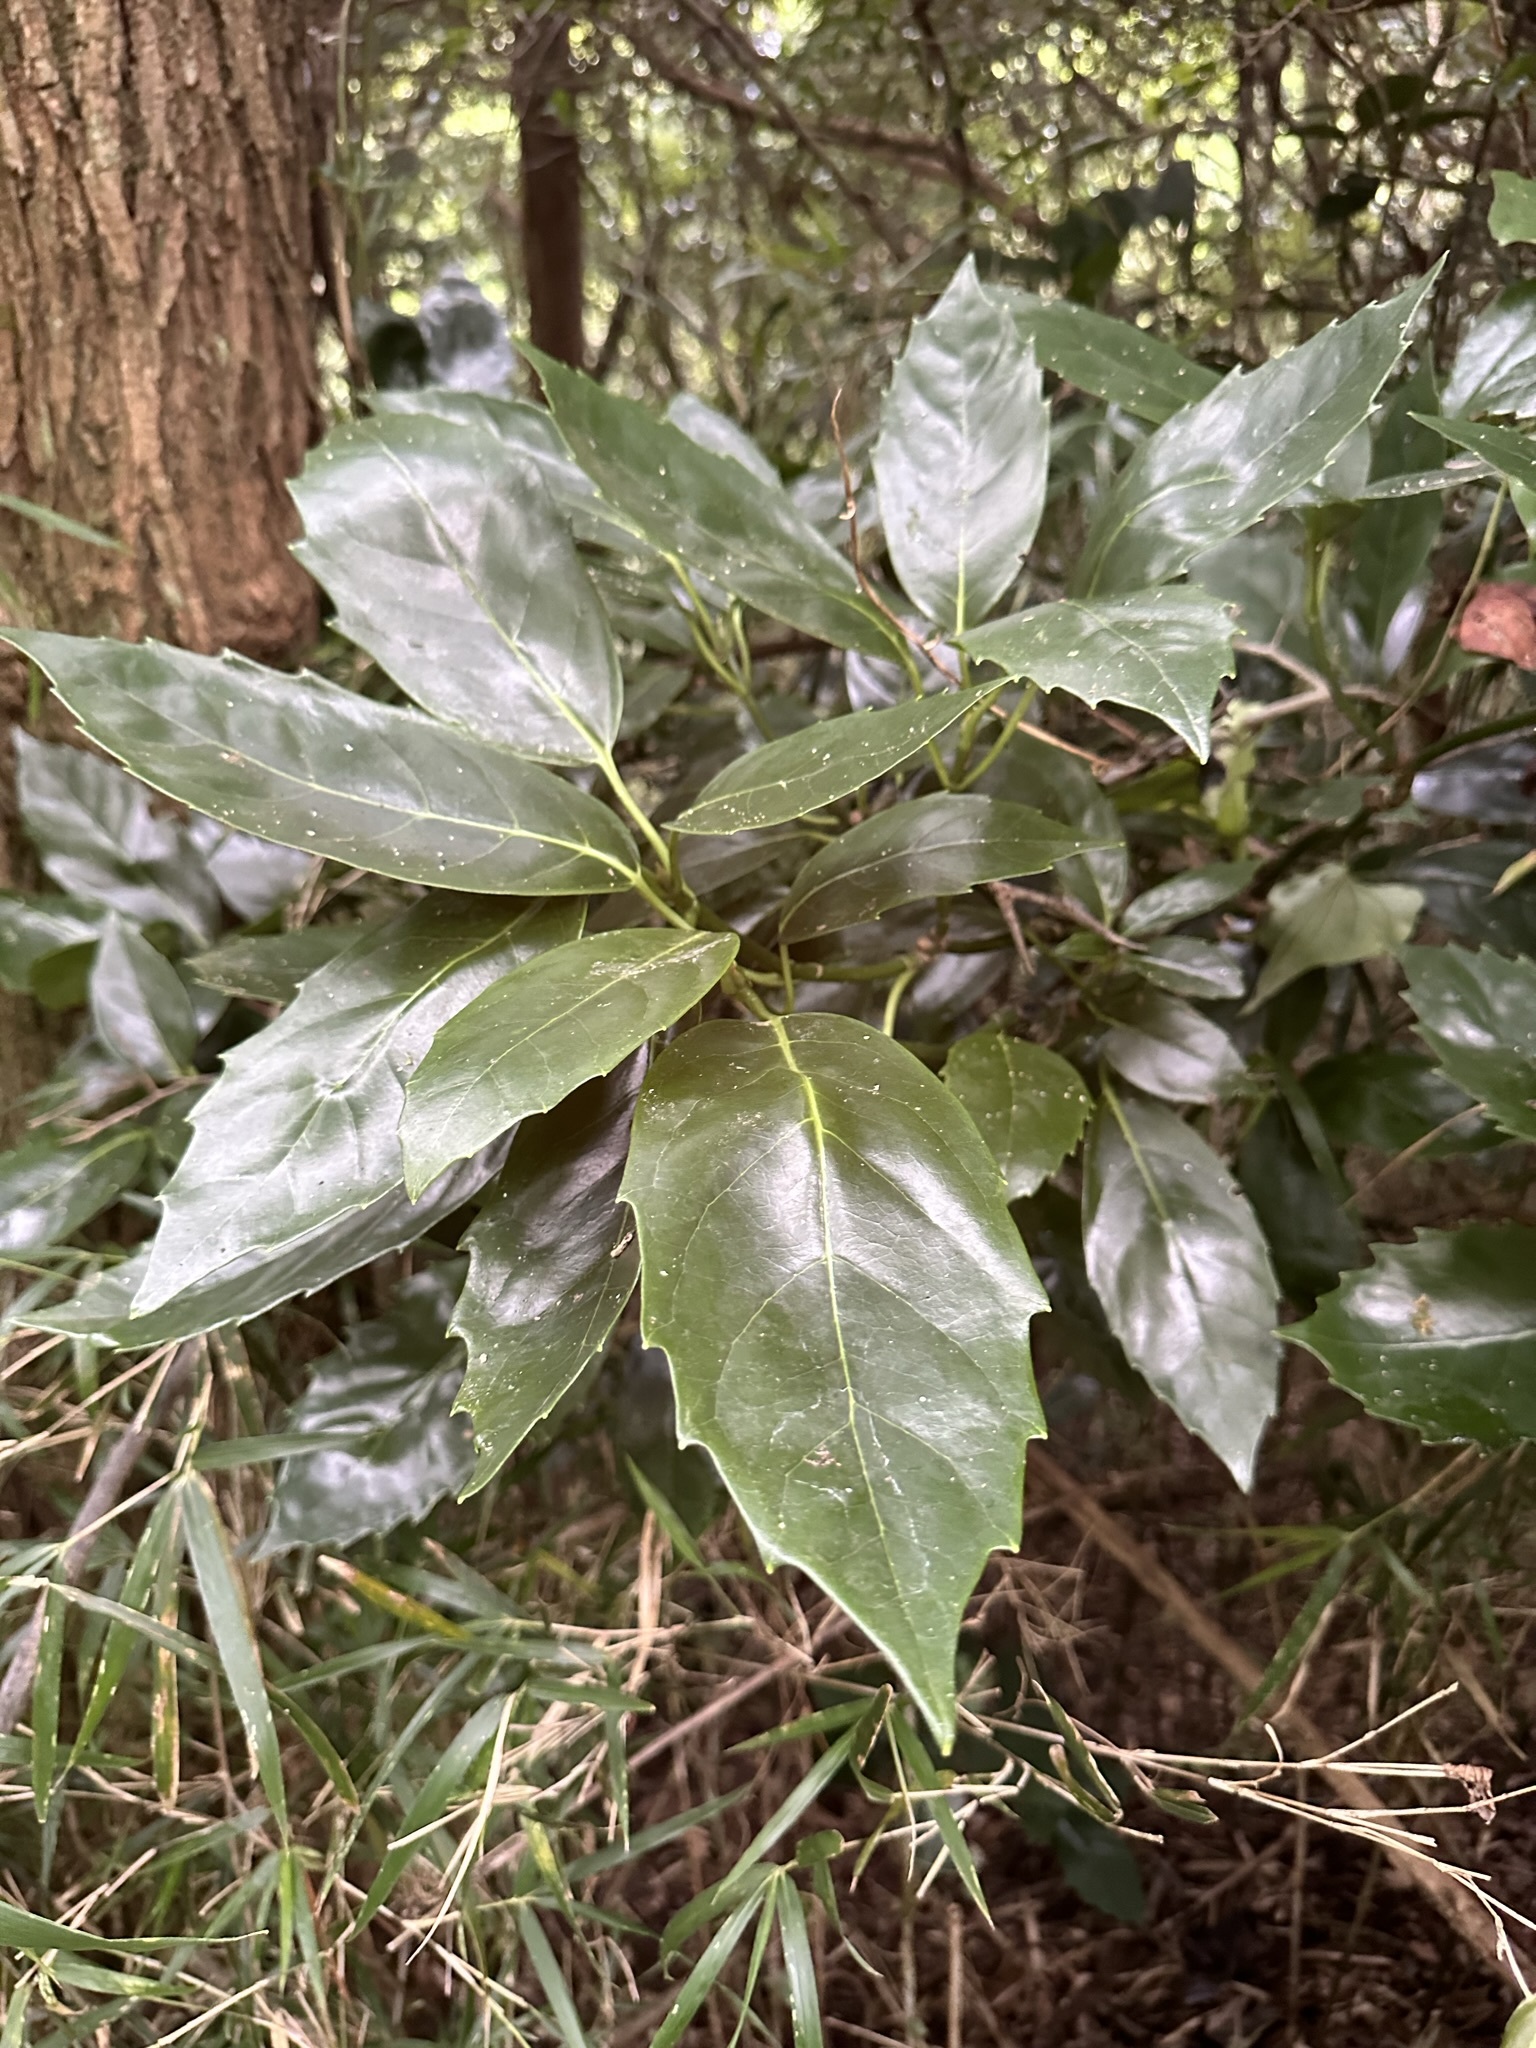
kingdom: Plantae
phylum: Tracheophyta
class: Magnoliopsida
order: Garryales
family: Garryaceae
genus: Aucuba
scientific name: Aucuba japonica
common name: Spotted-laurel
